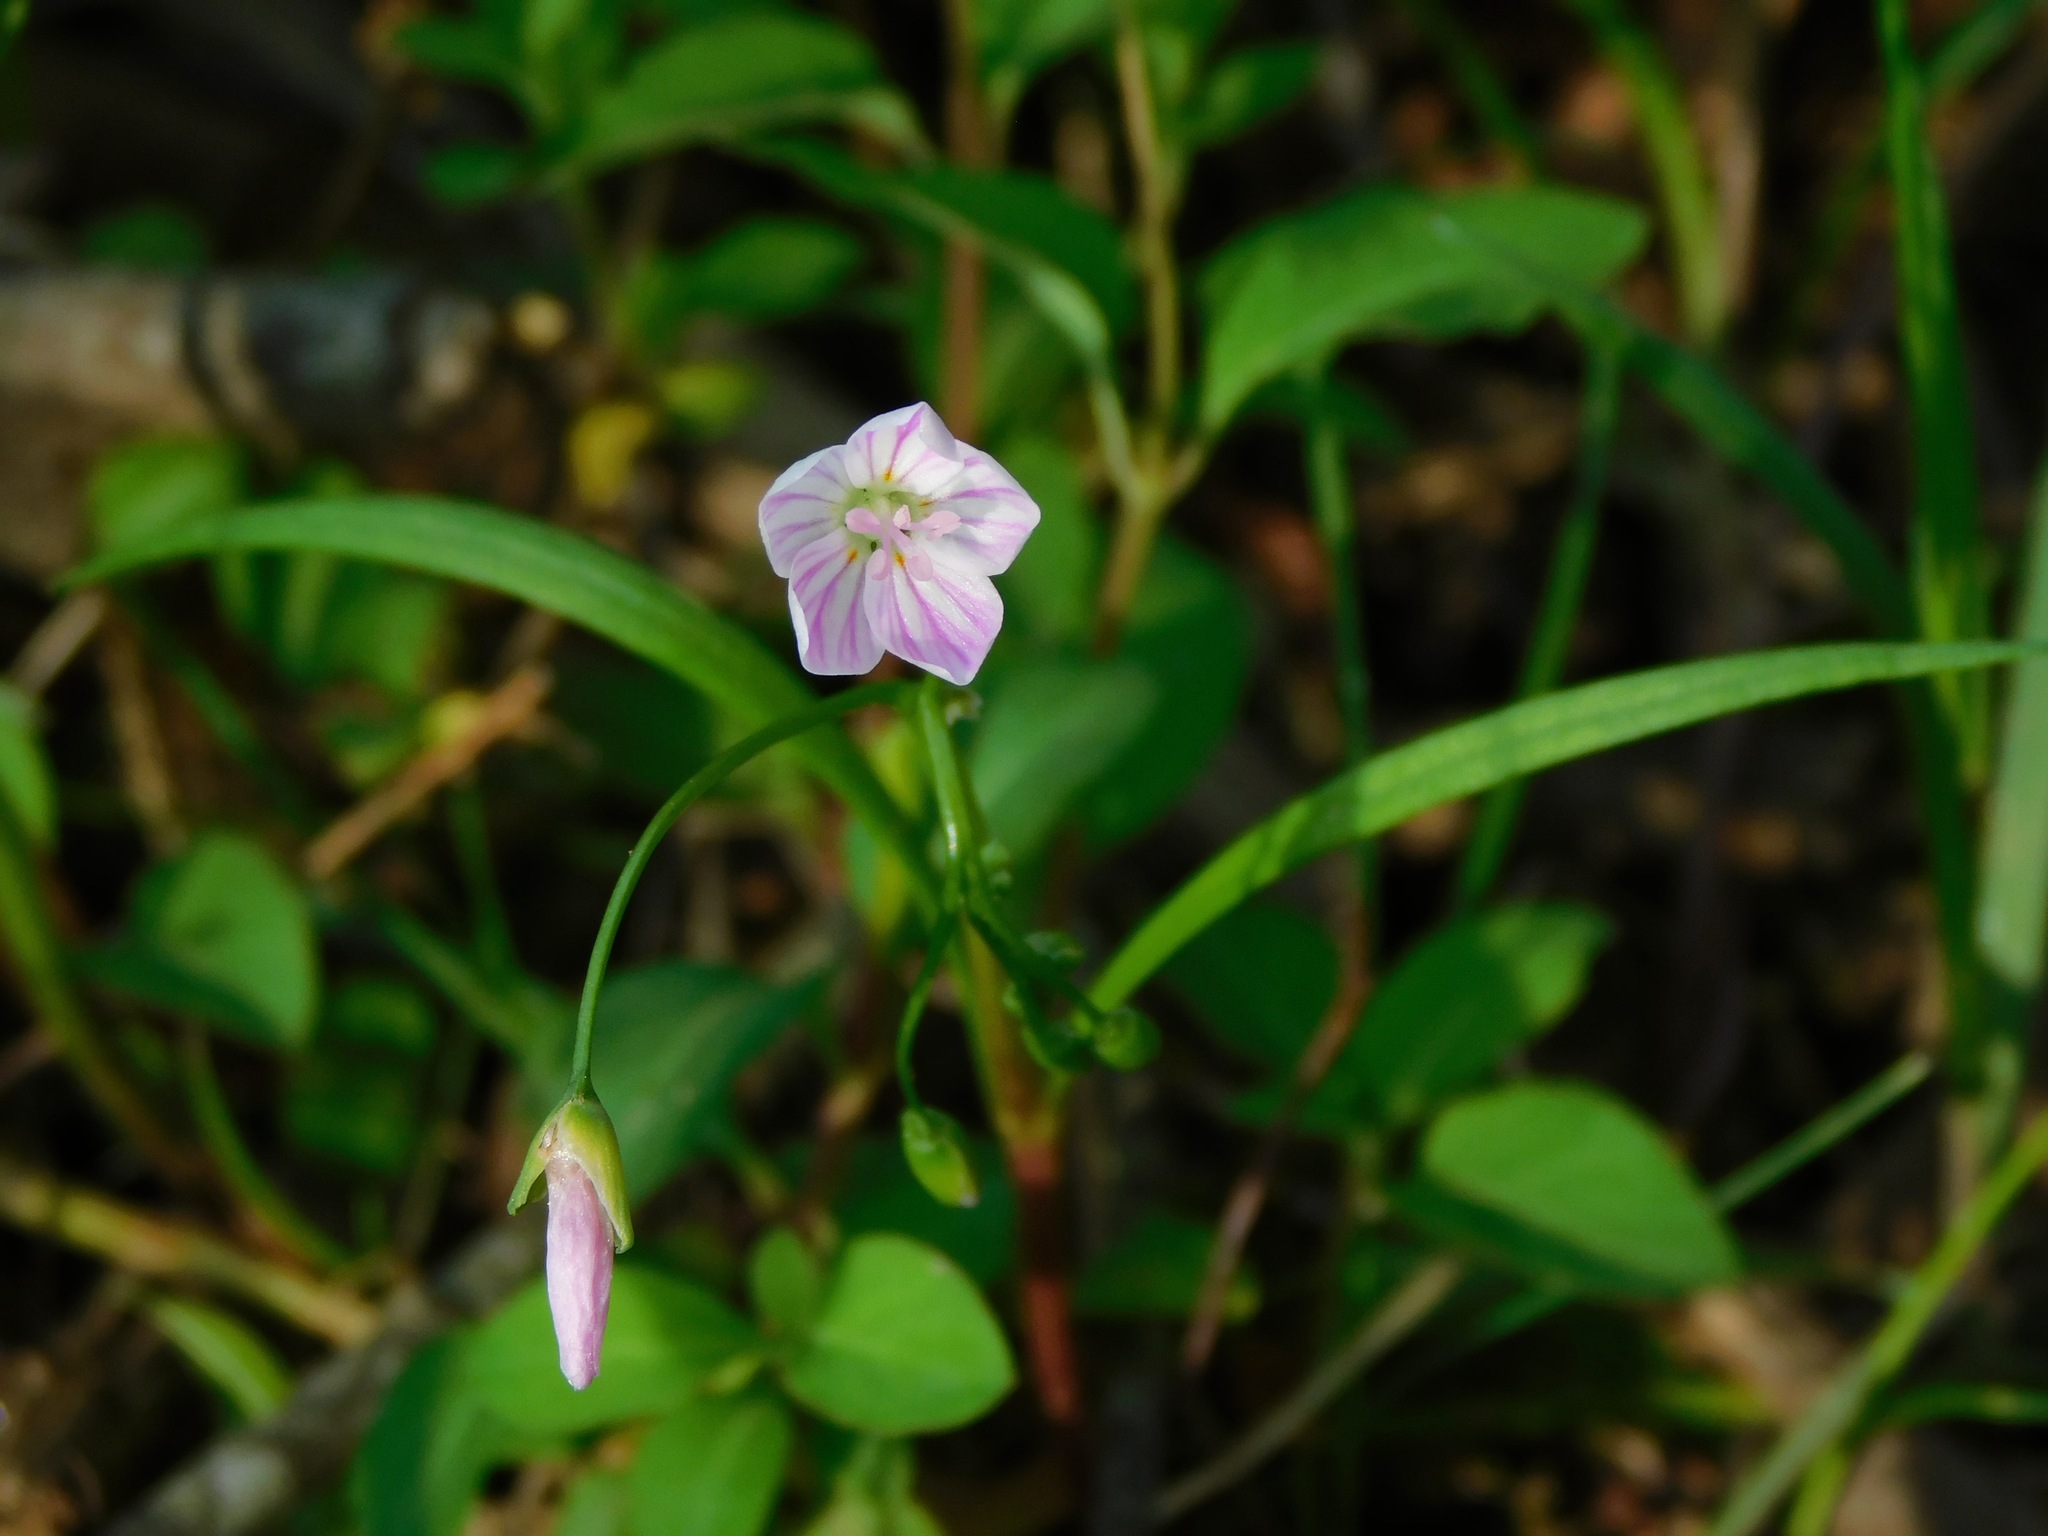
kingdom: Plantae
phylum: Tracheophyta
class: Magnoliopsida
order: Caryophyllales
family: Montiaceae
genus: Claytonia
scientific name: Claytonia virginica
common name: Virginia springbeauty
